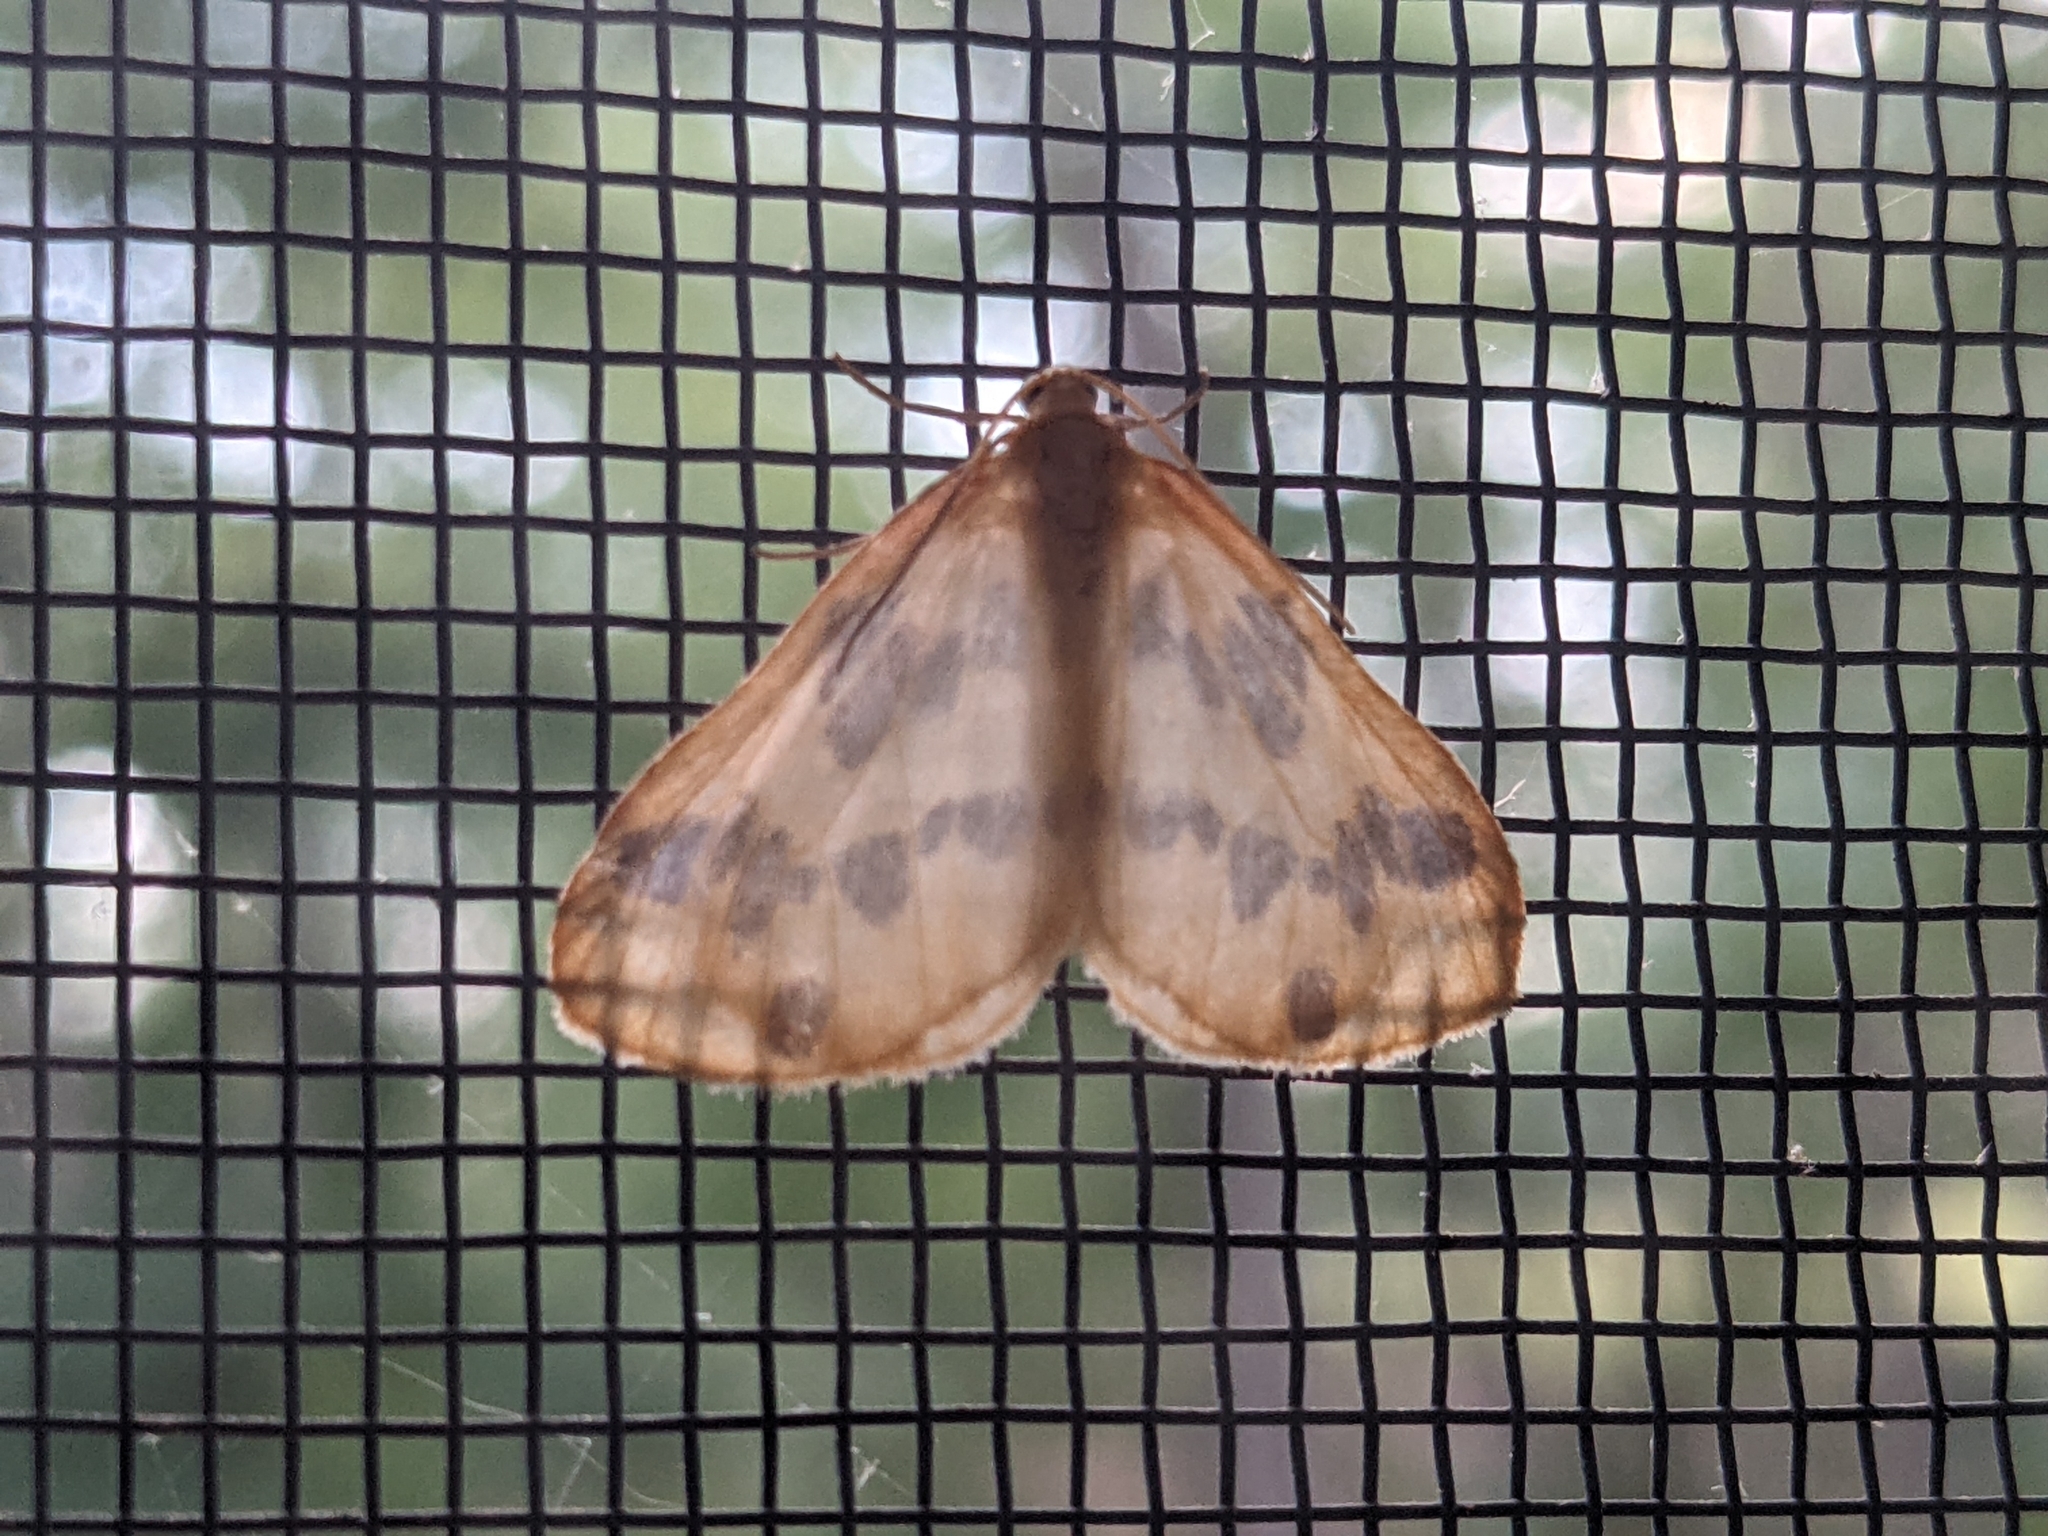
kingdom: Animalia
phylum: Arthropoda
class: Insecta
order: Lepidoptera
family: Geometridae
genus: Eubaphe
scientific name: Eubaphe mendica
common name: Beggar
